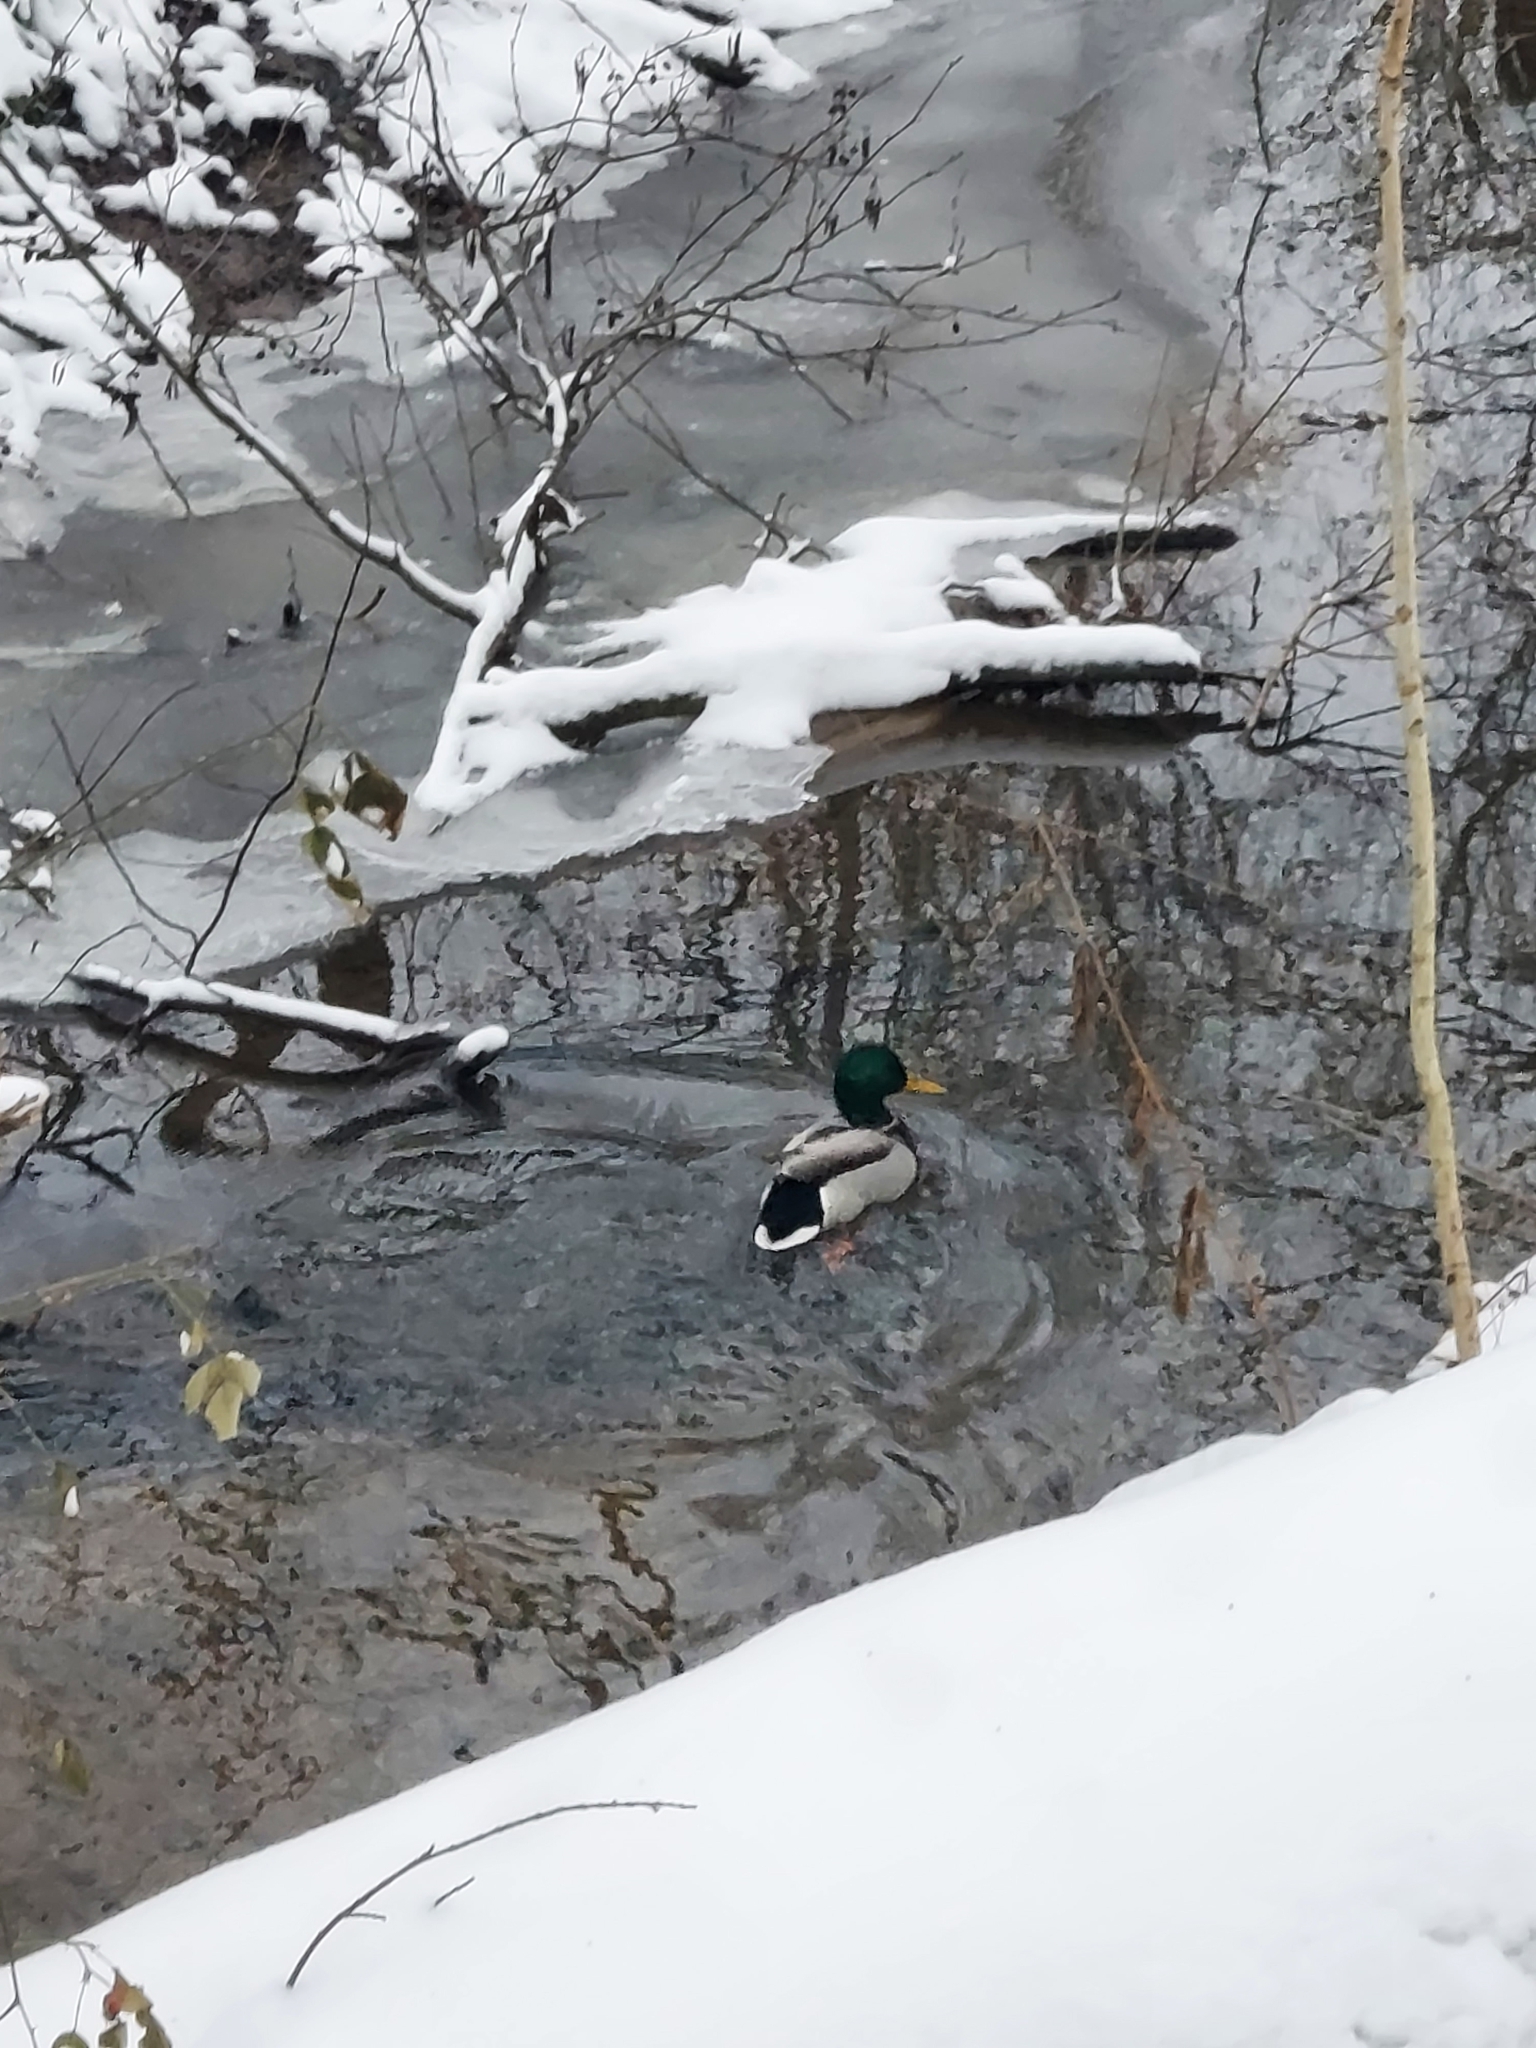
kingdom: Animalia
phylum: Chordata
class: Aves
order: Anseriformes
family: Anatidae
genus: Anas
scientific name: Anas platyrhynchos
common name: Mallard
